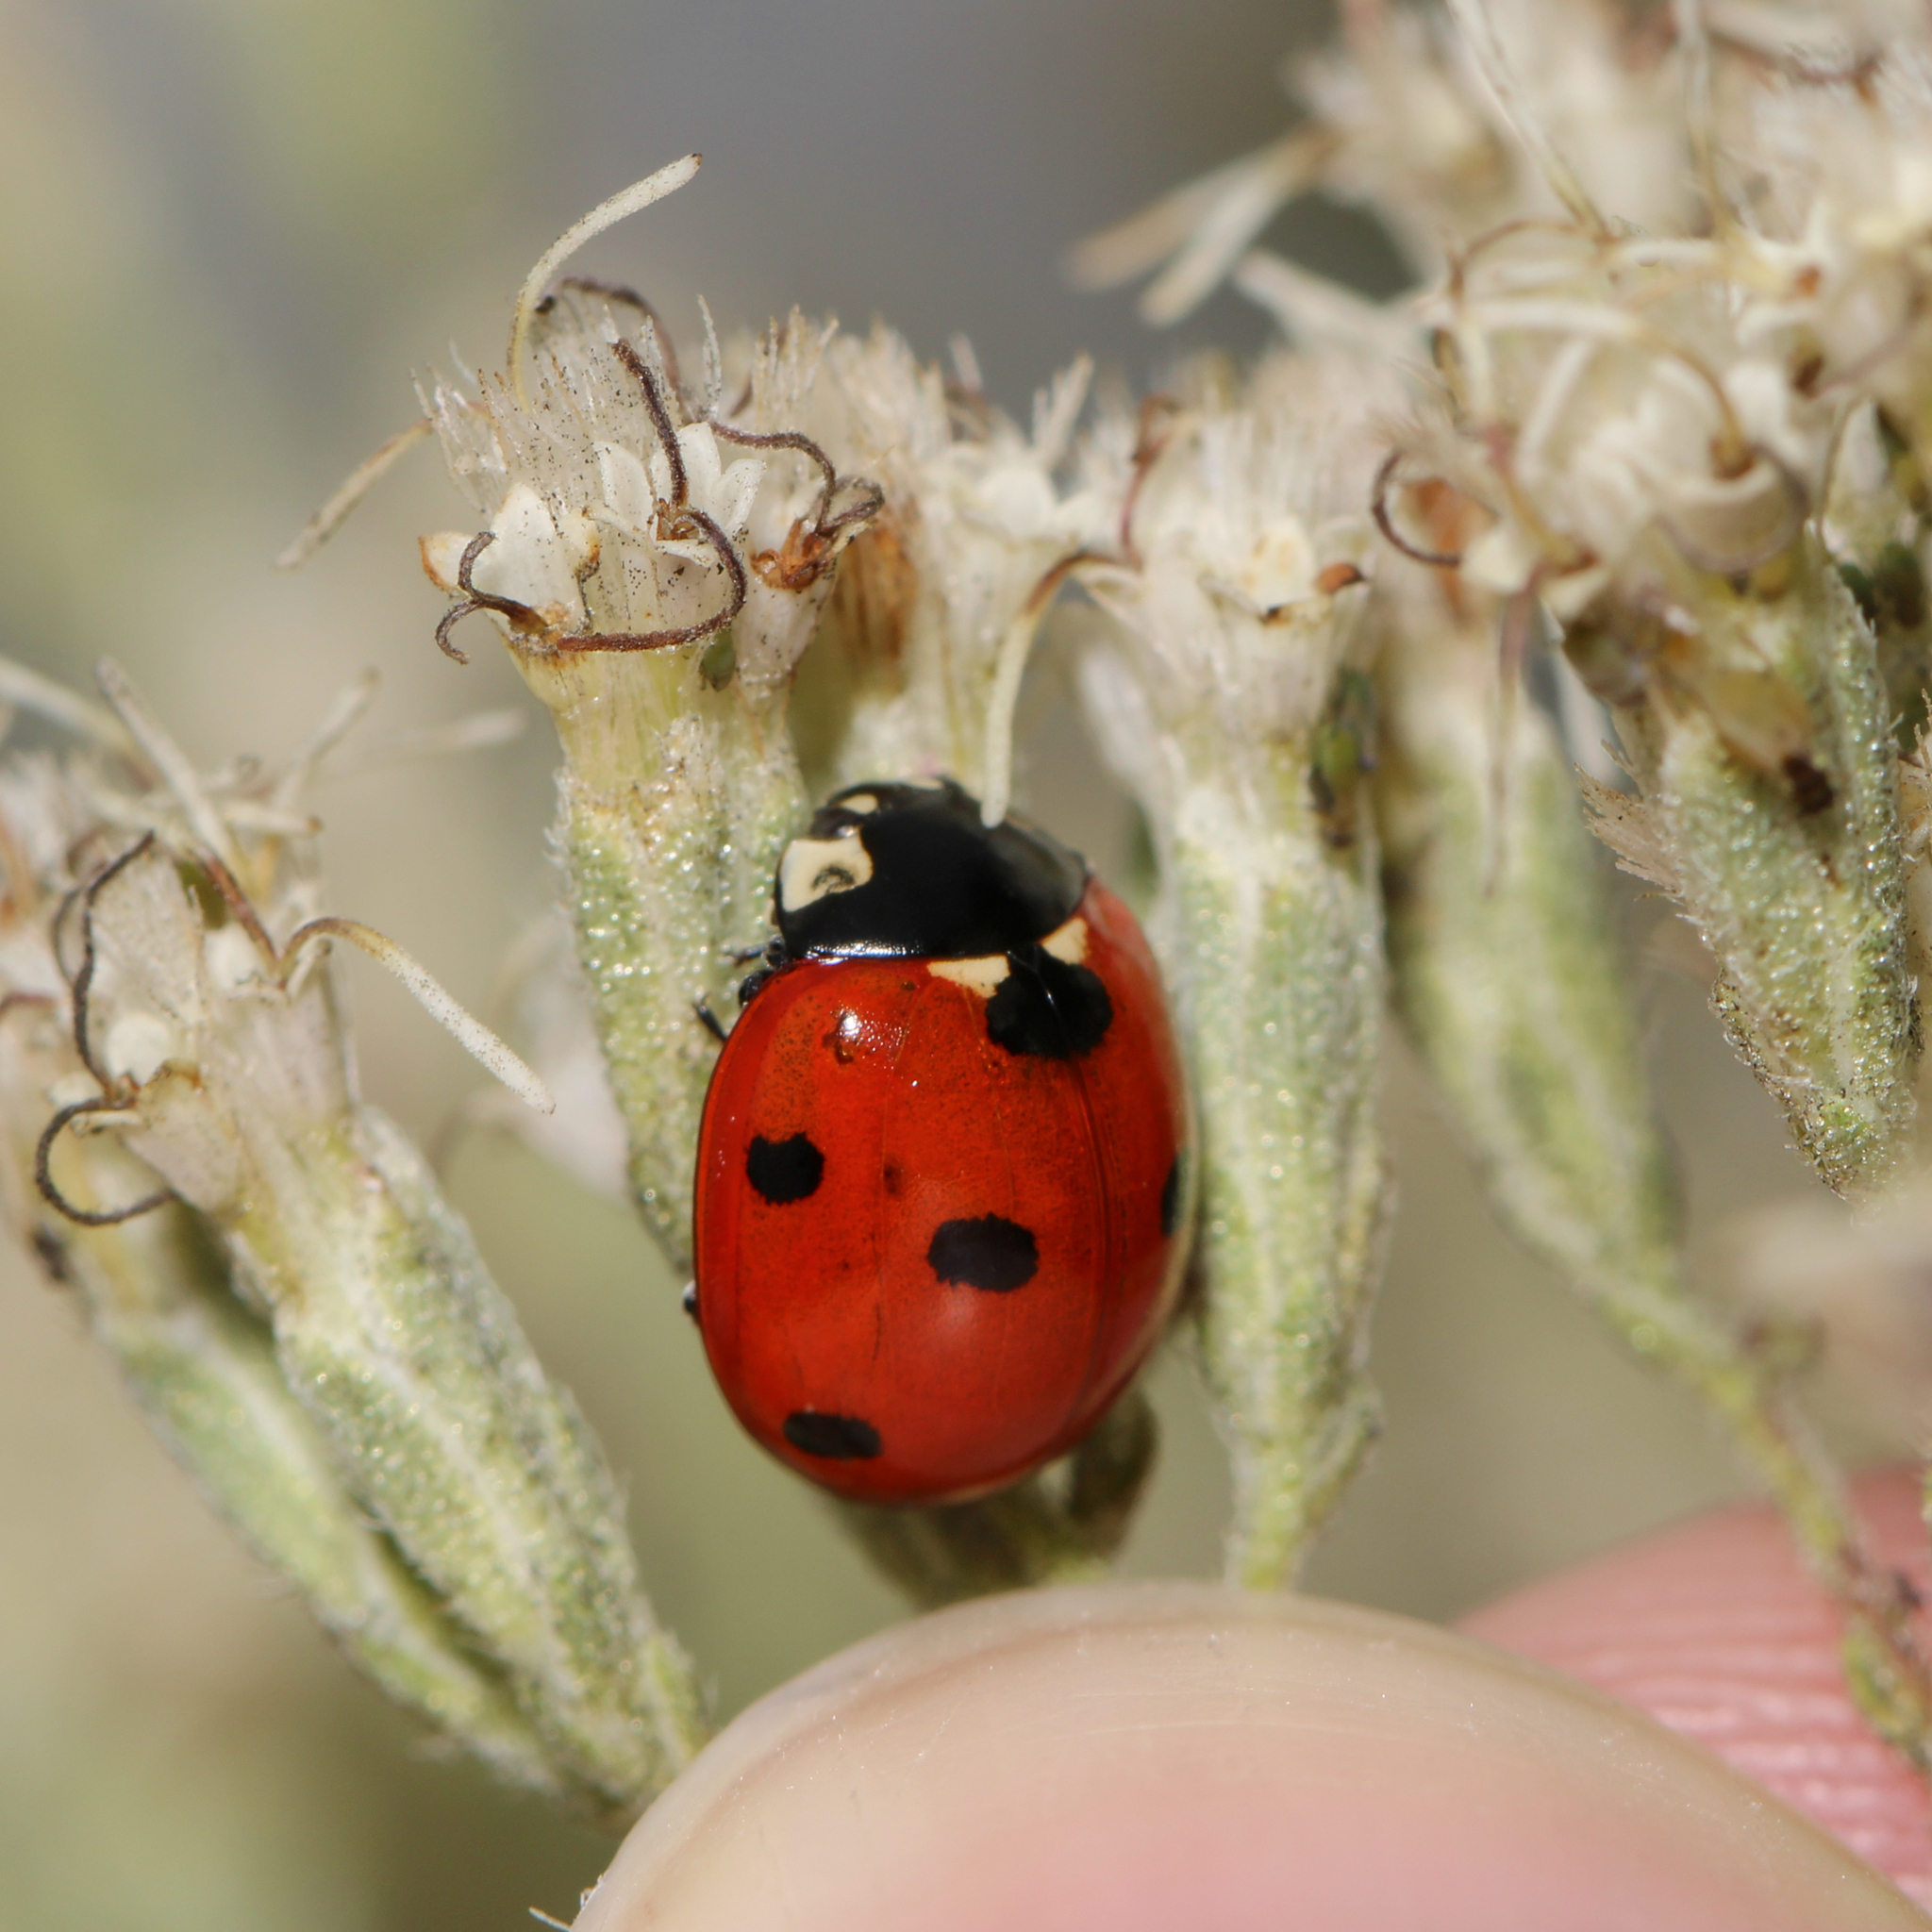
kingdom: Animalia
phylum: Arthropoda
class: Insecta
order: Coleoptera
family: Coccinellidae
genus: Coccinella
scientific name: Coccinella septempunctata
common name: Sevenspotted lady beetle
